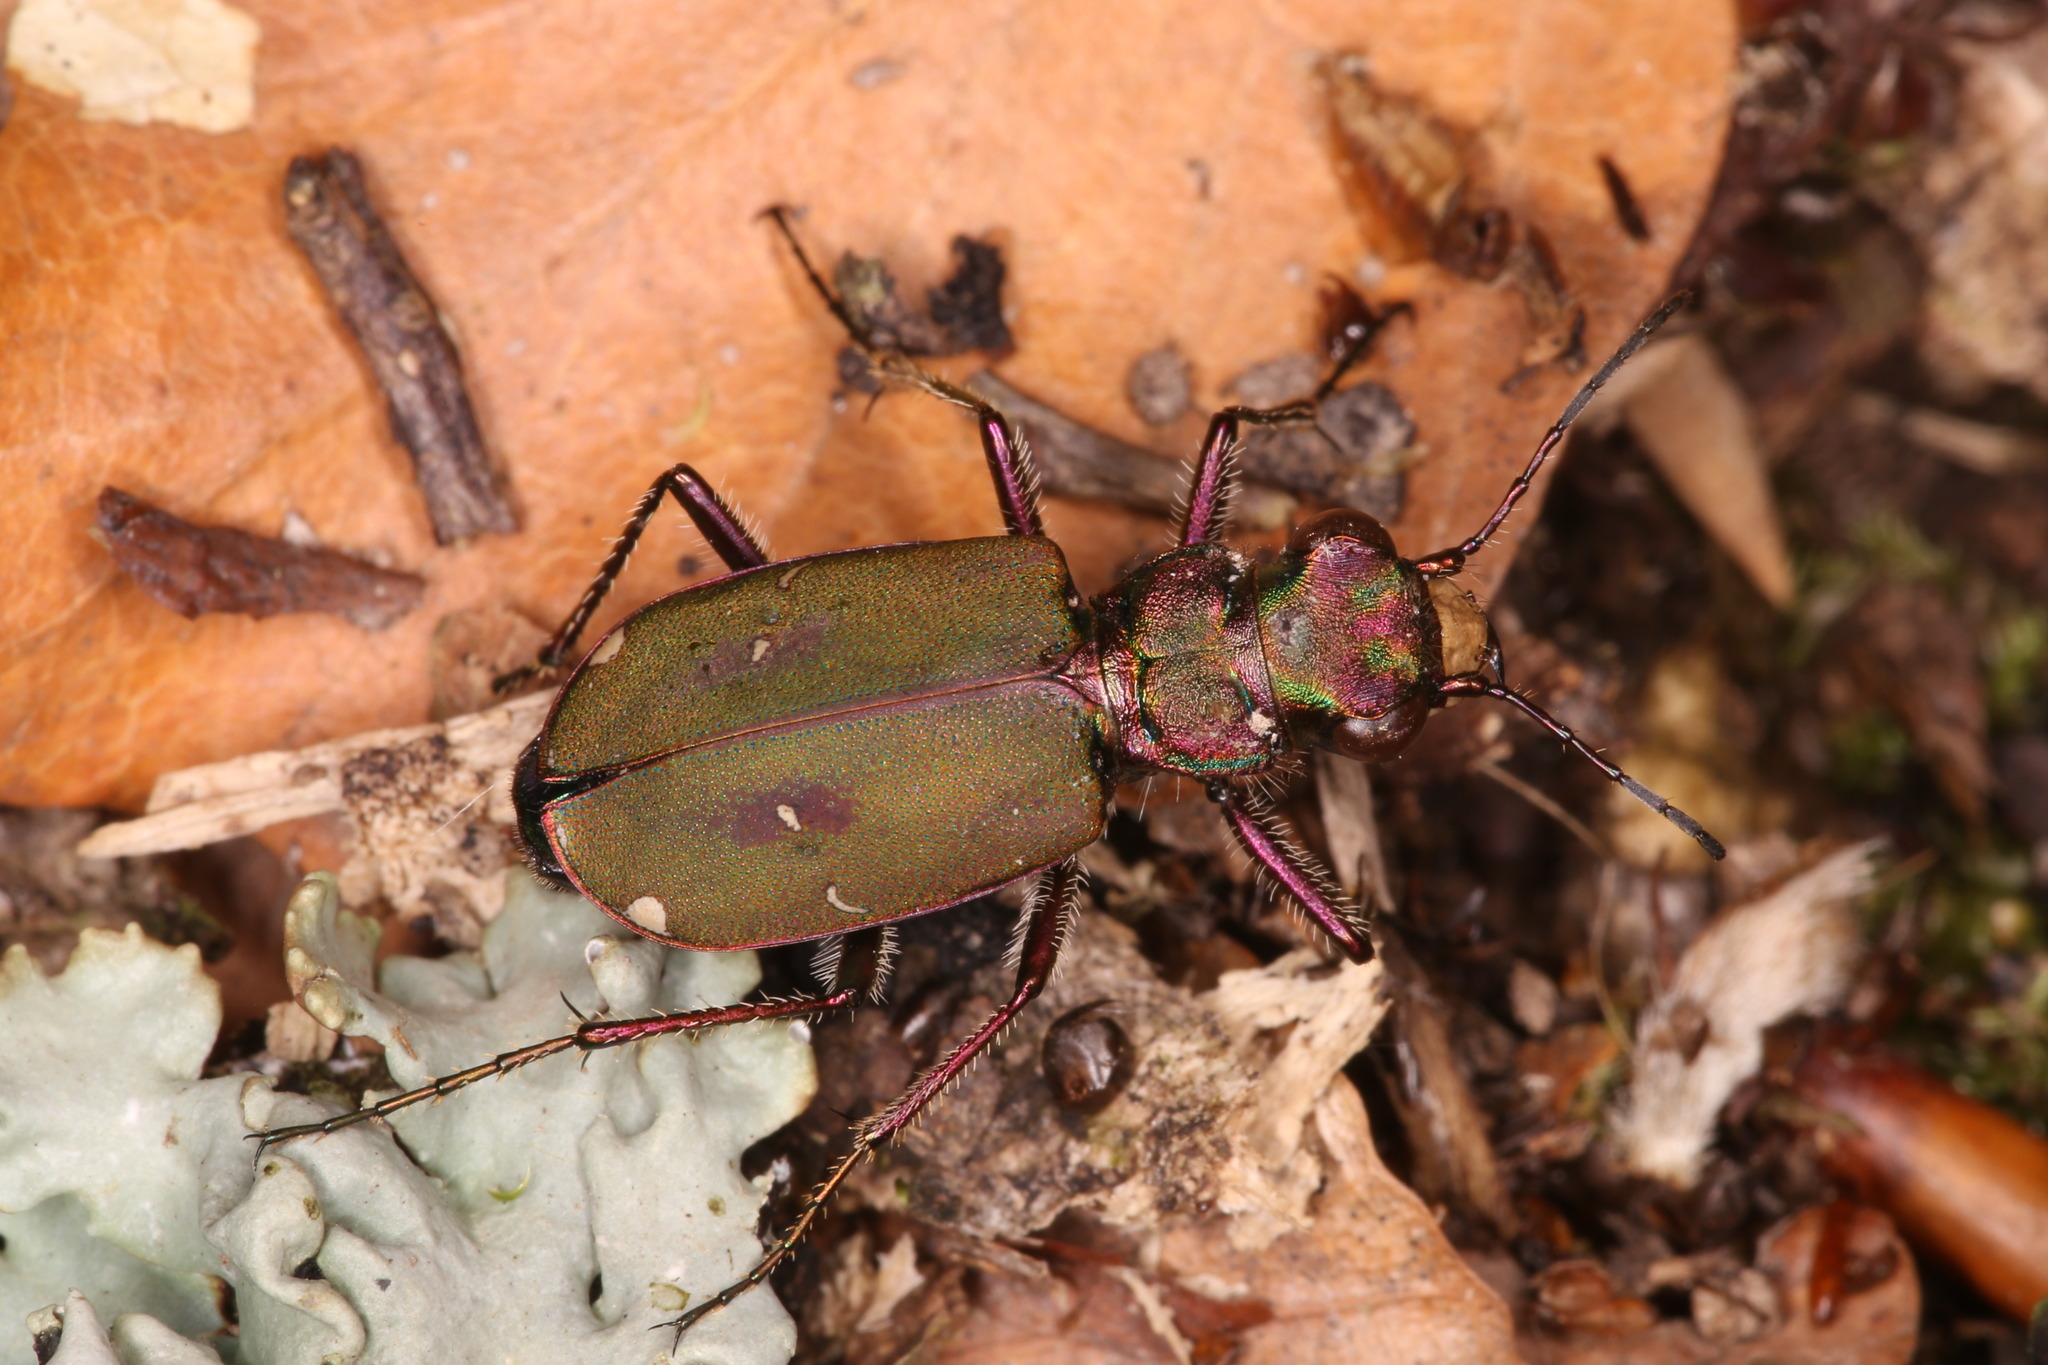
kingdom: Animalia
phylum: Arthropoda
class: Insecta
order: Coleoptera
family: Carabidae
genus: Cicindela
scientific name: Cicindela campestris
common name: Common tiger beetle
